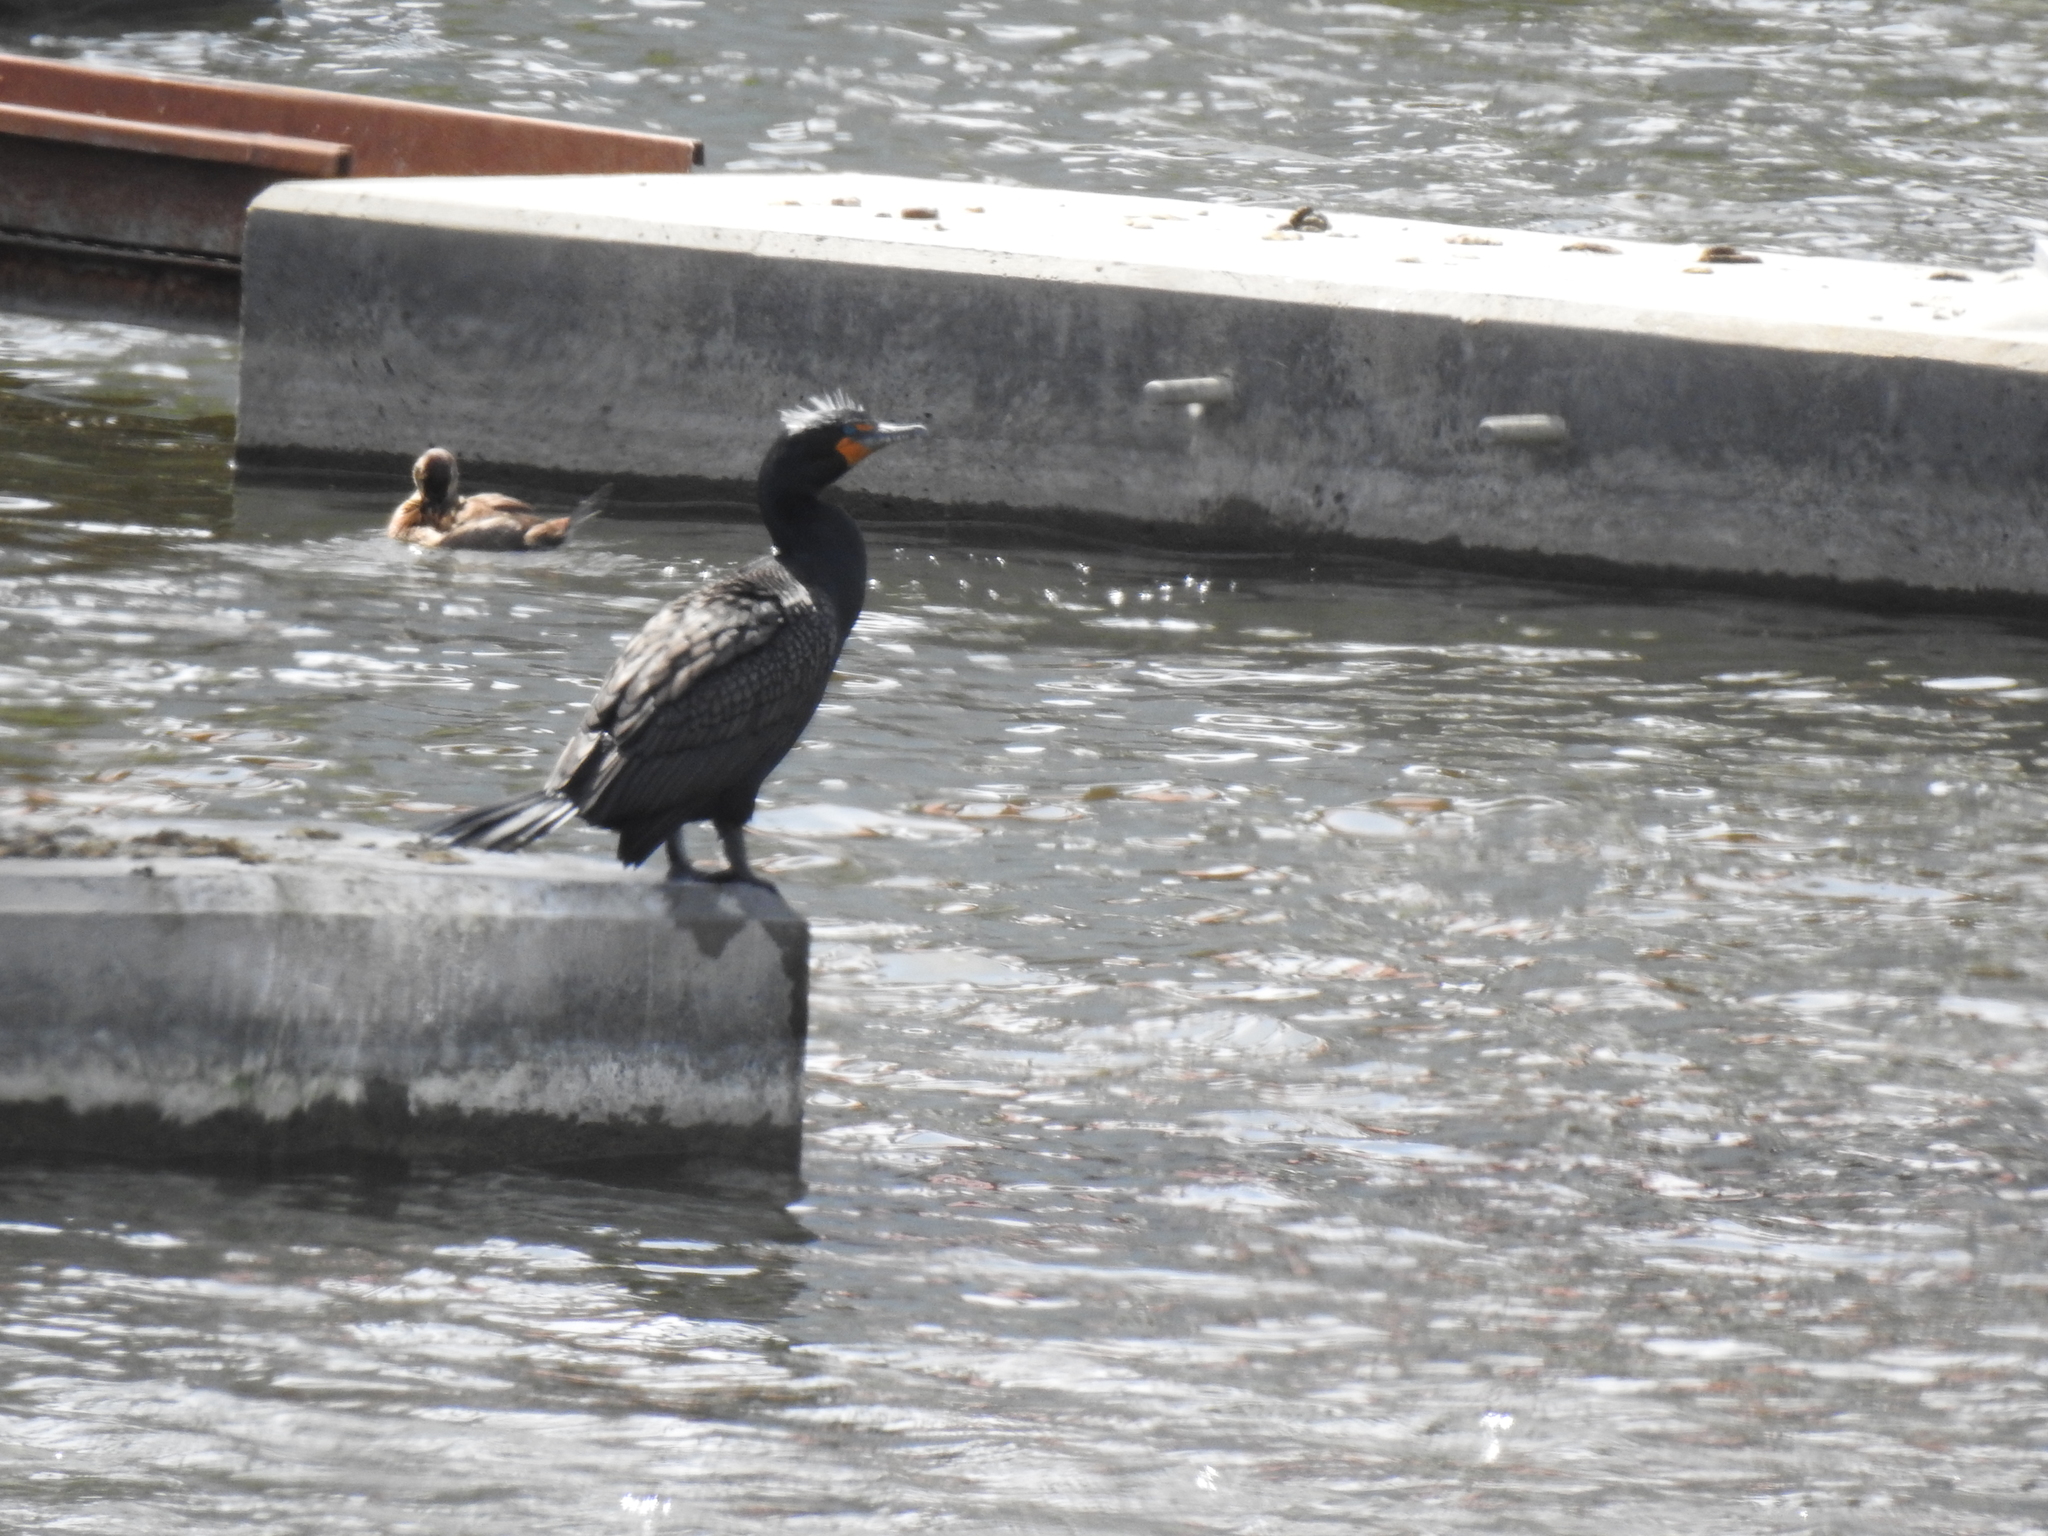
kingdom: Animalia
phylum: Chordata
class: Aves
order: Anseriformes
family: Anatidae
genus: Oxyura
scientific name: Oxyura jamaicensis
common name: Ruddy duck
